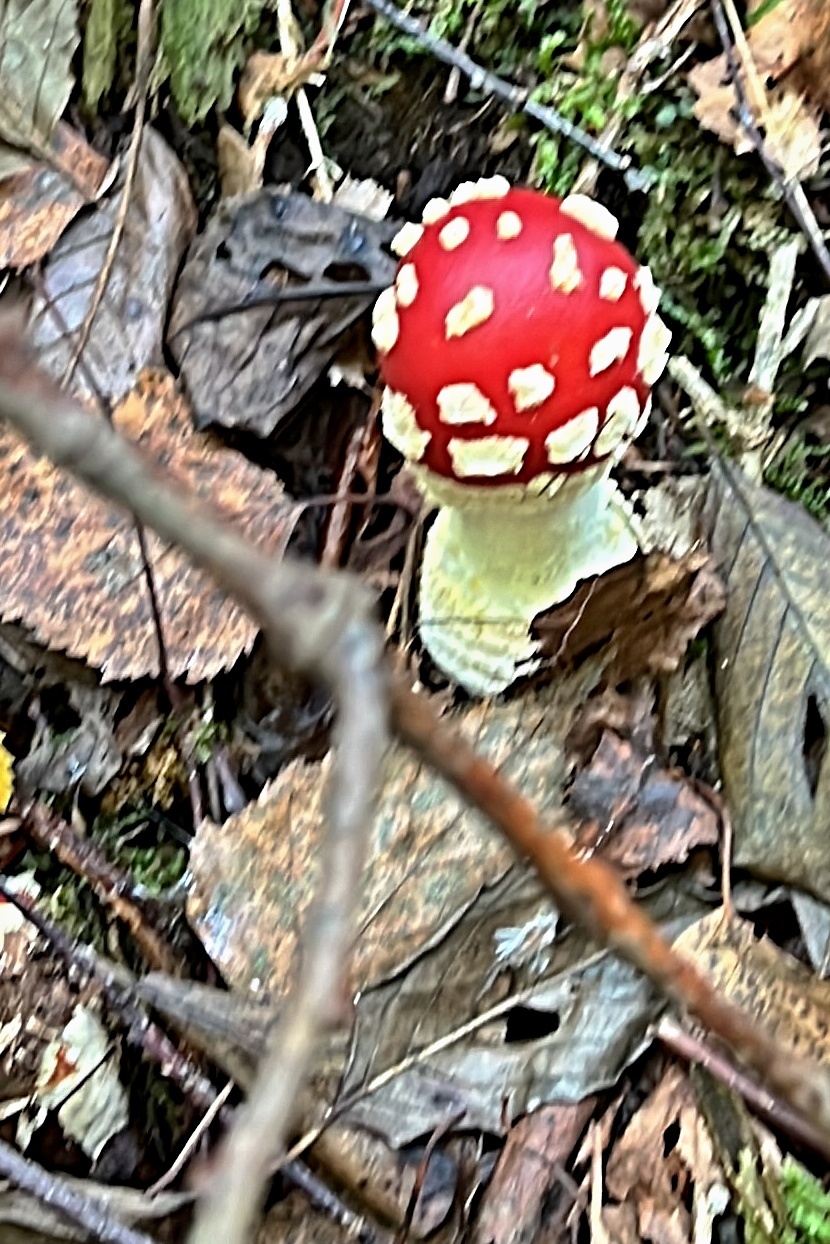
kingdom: Fungi
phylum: Basidiomycota
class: Agaricomycetes
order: Agaricales
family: Amanitaceae
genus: Amanita
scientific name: Amanita muscaria
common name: Fly agaric
